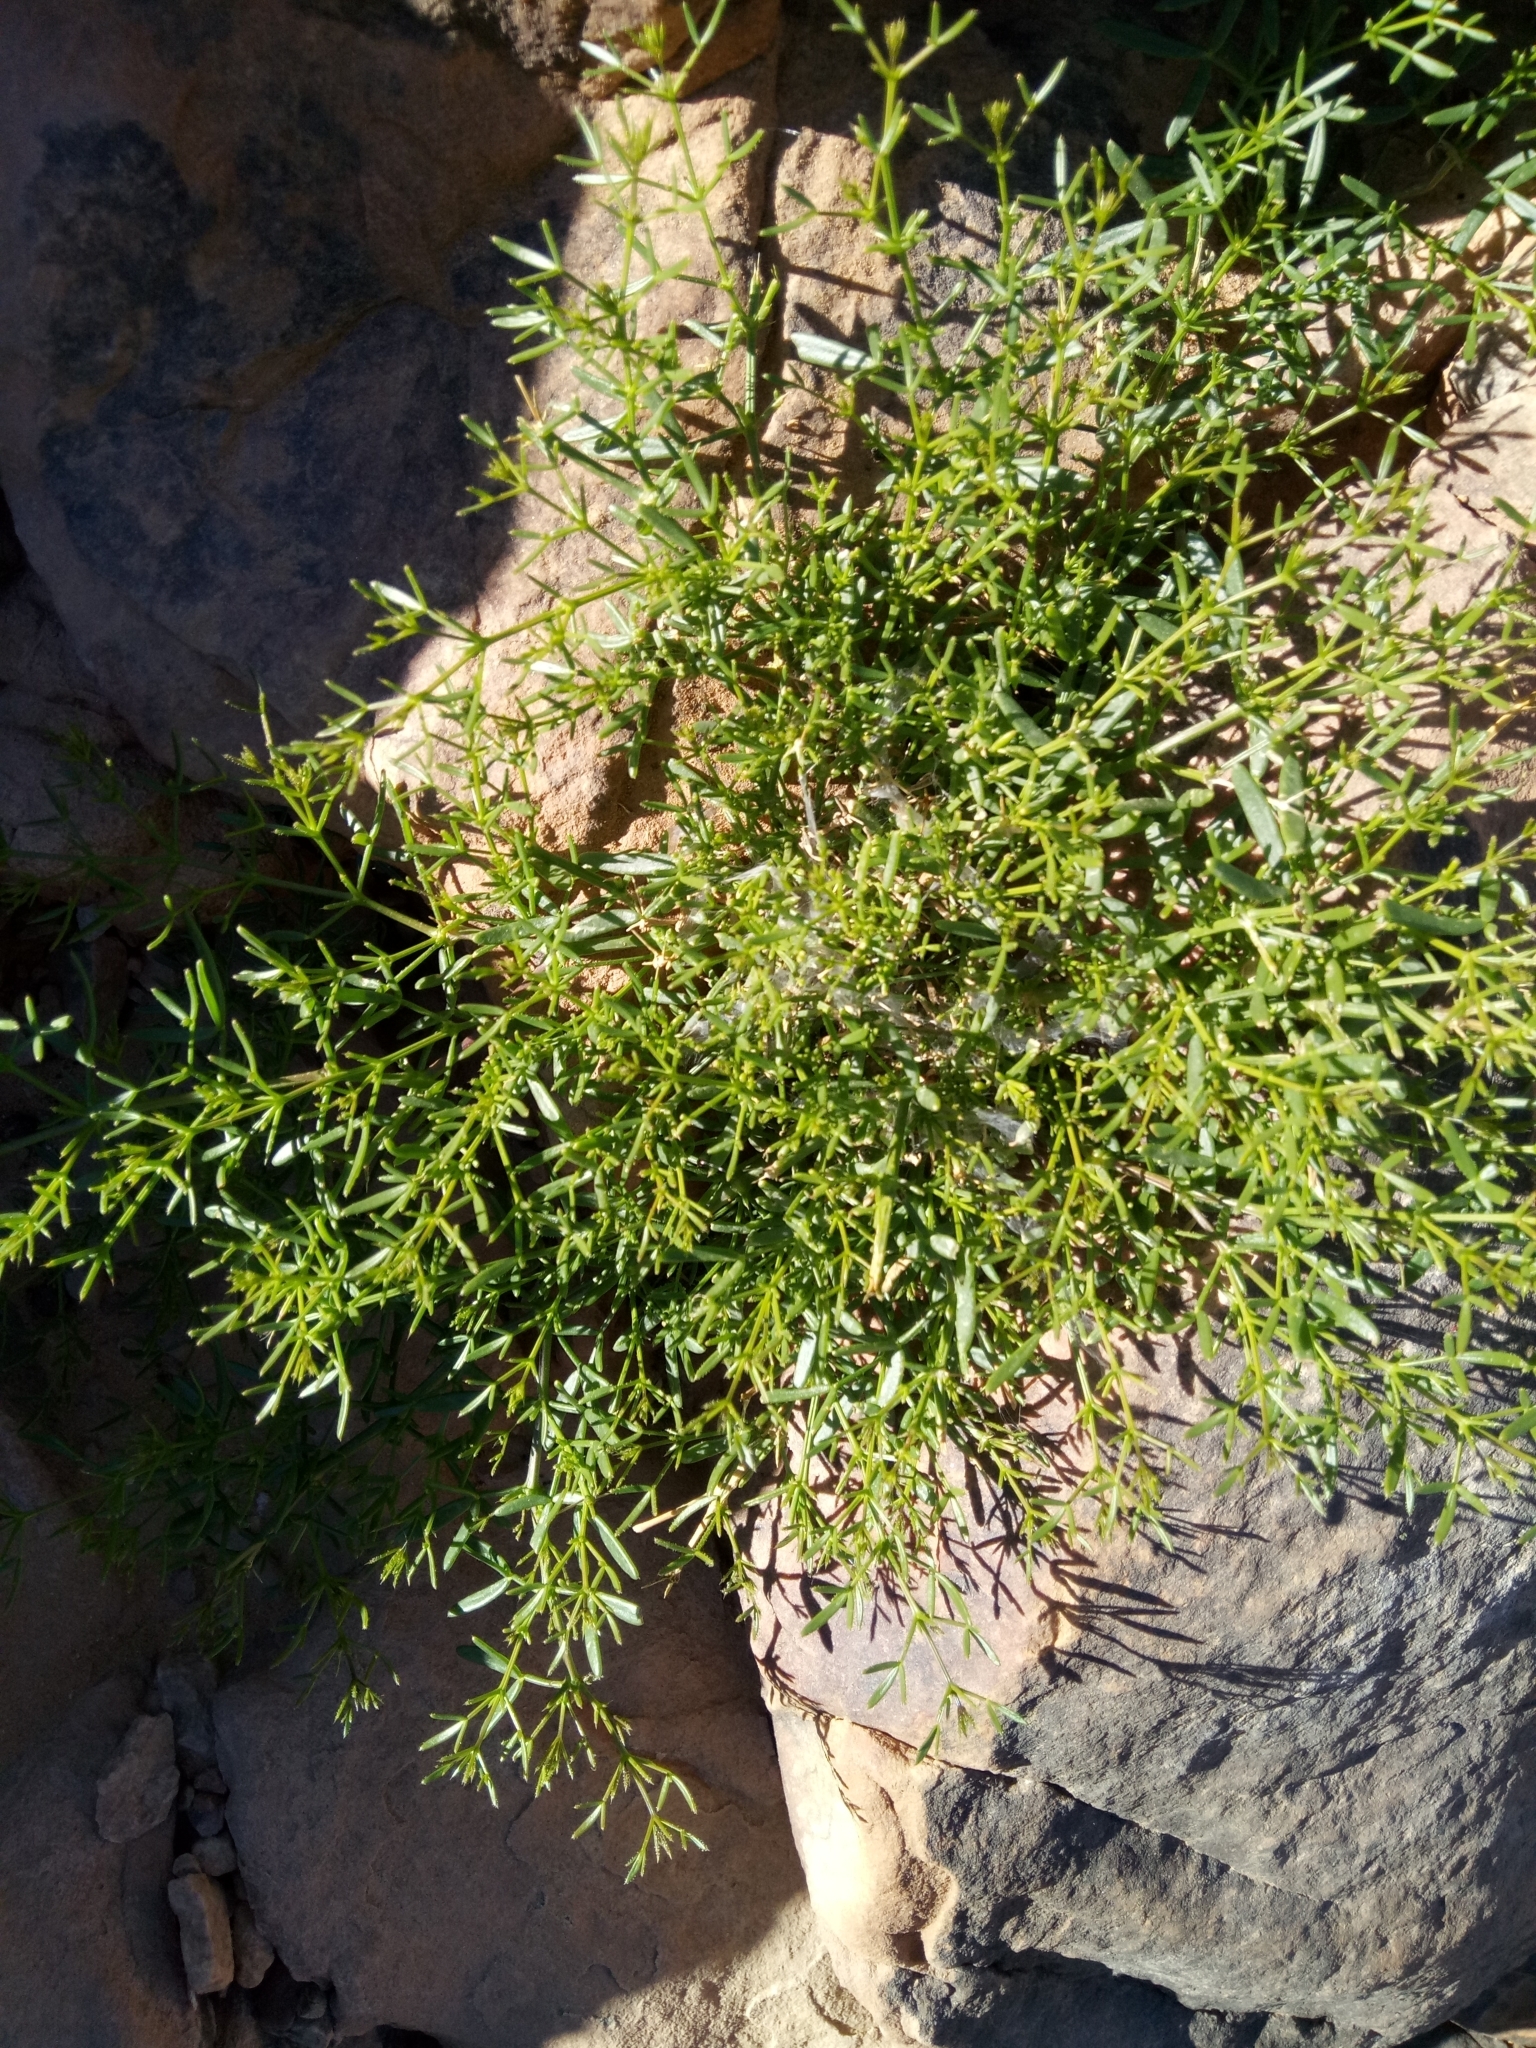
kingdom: Plantae
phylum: Tracheophyta
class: Magnoliopsida
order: Zygophyllales
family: Zygophyllaceae
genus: Fagonia
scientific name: Fagonia orientalis
